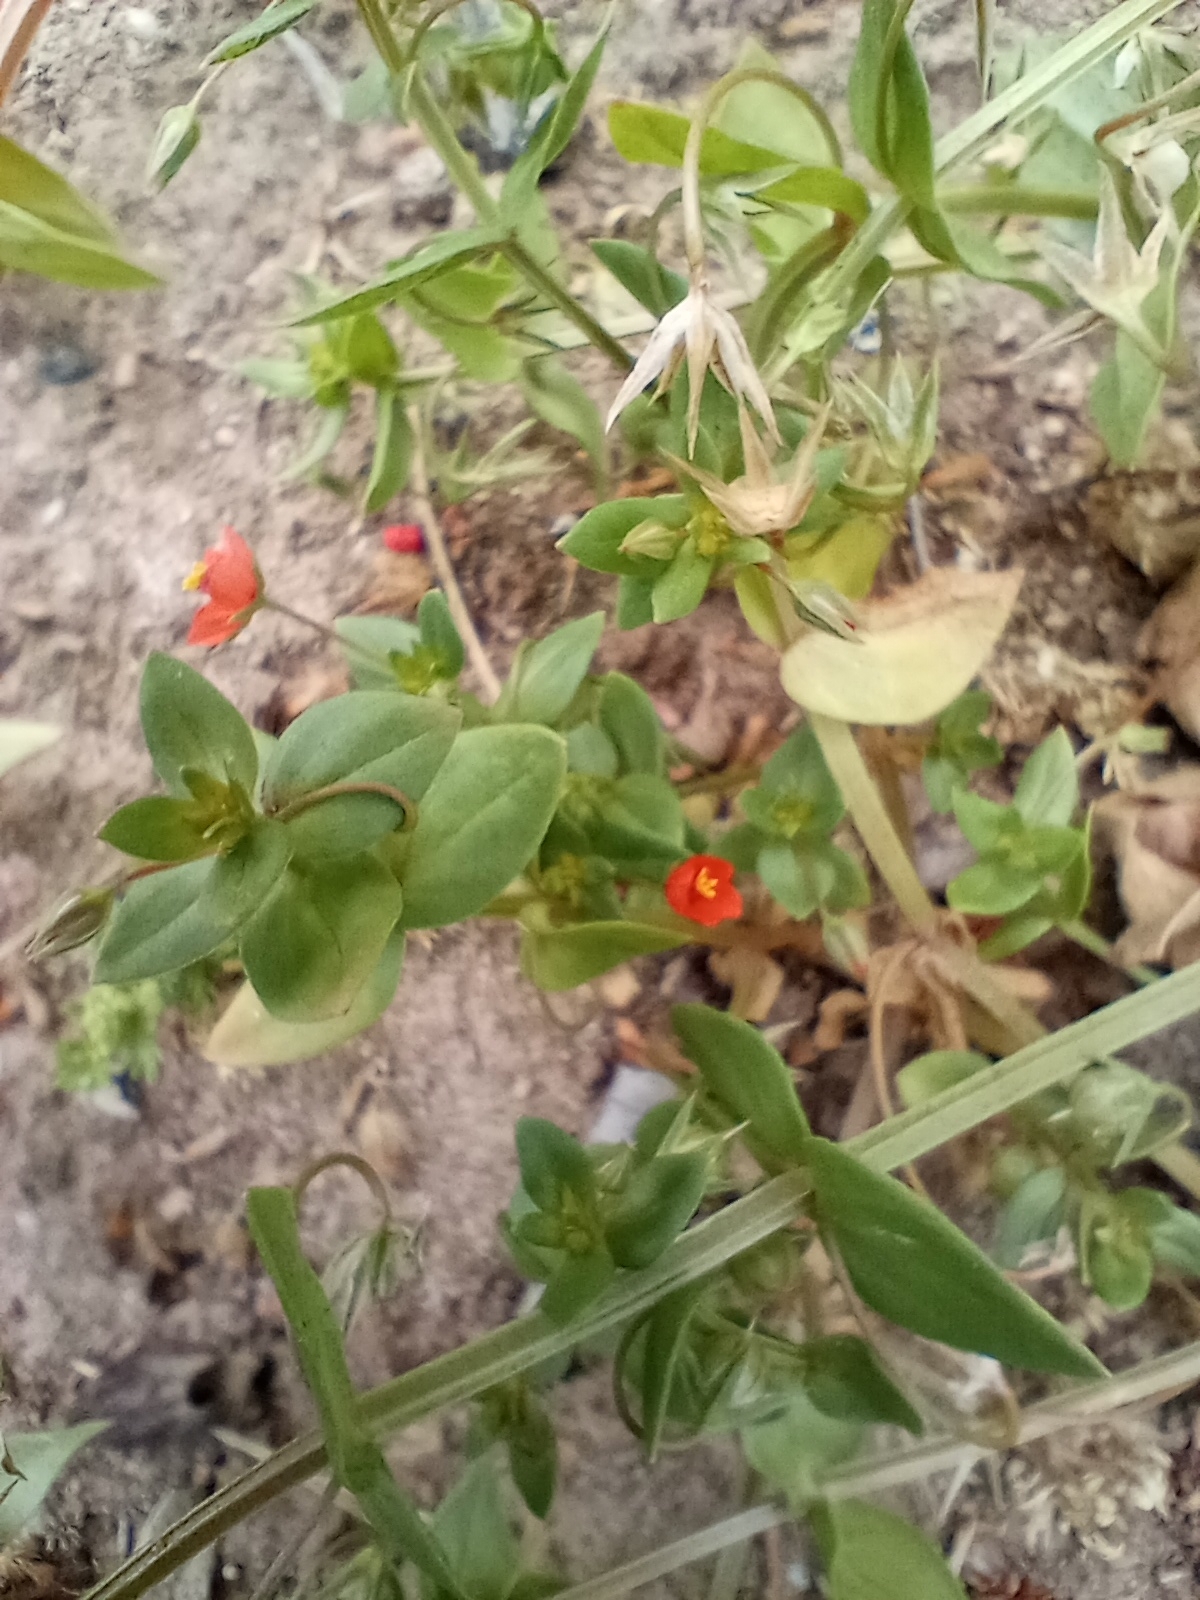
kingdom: Plantae
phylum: Tracheophyta
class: Magnoliopsida
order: Ericales
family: Primulaceae
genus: Lysimachia
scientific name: Lysimachia arvensis
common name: Scarlet pimpernel
